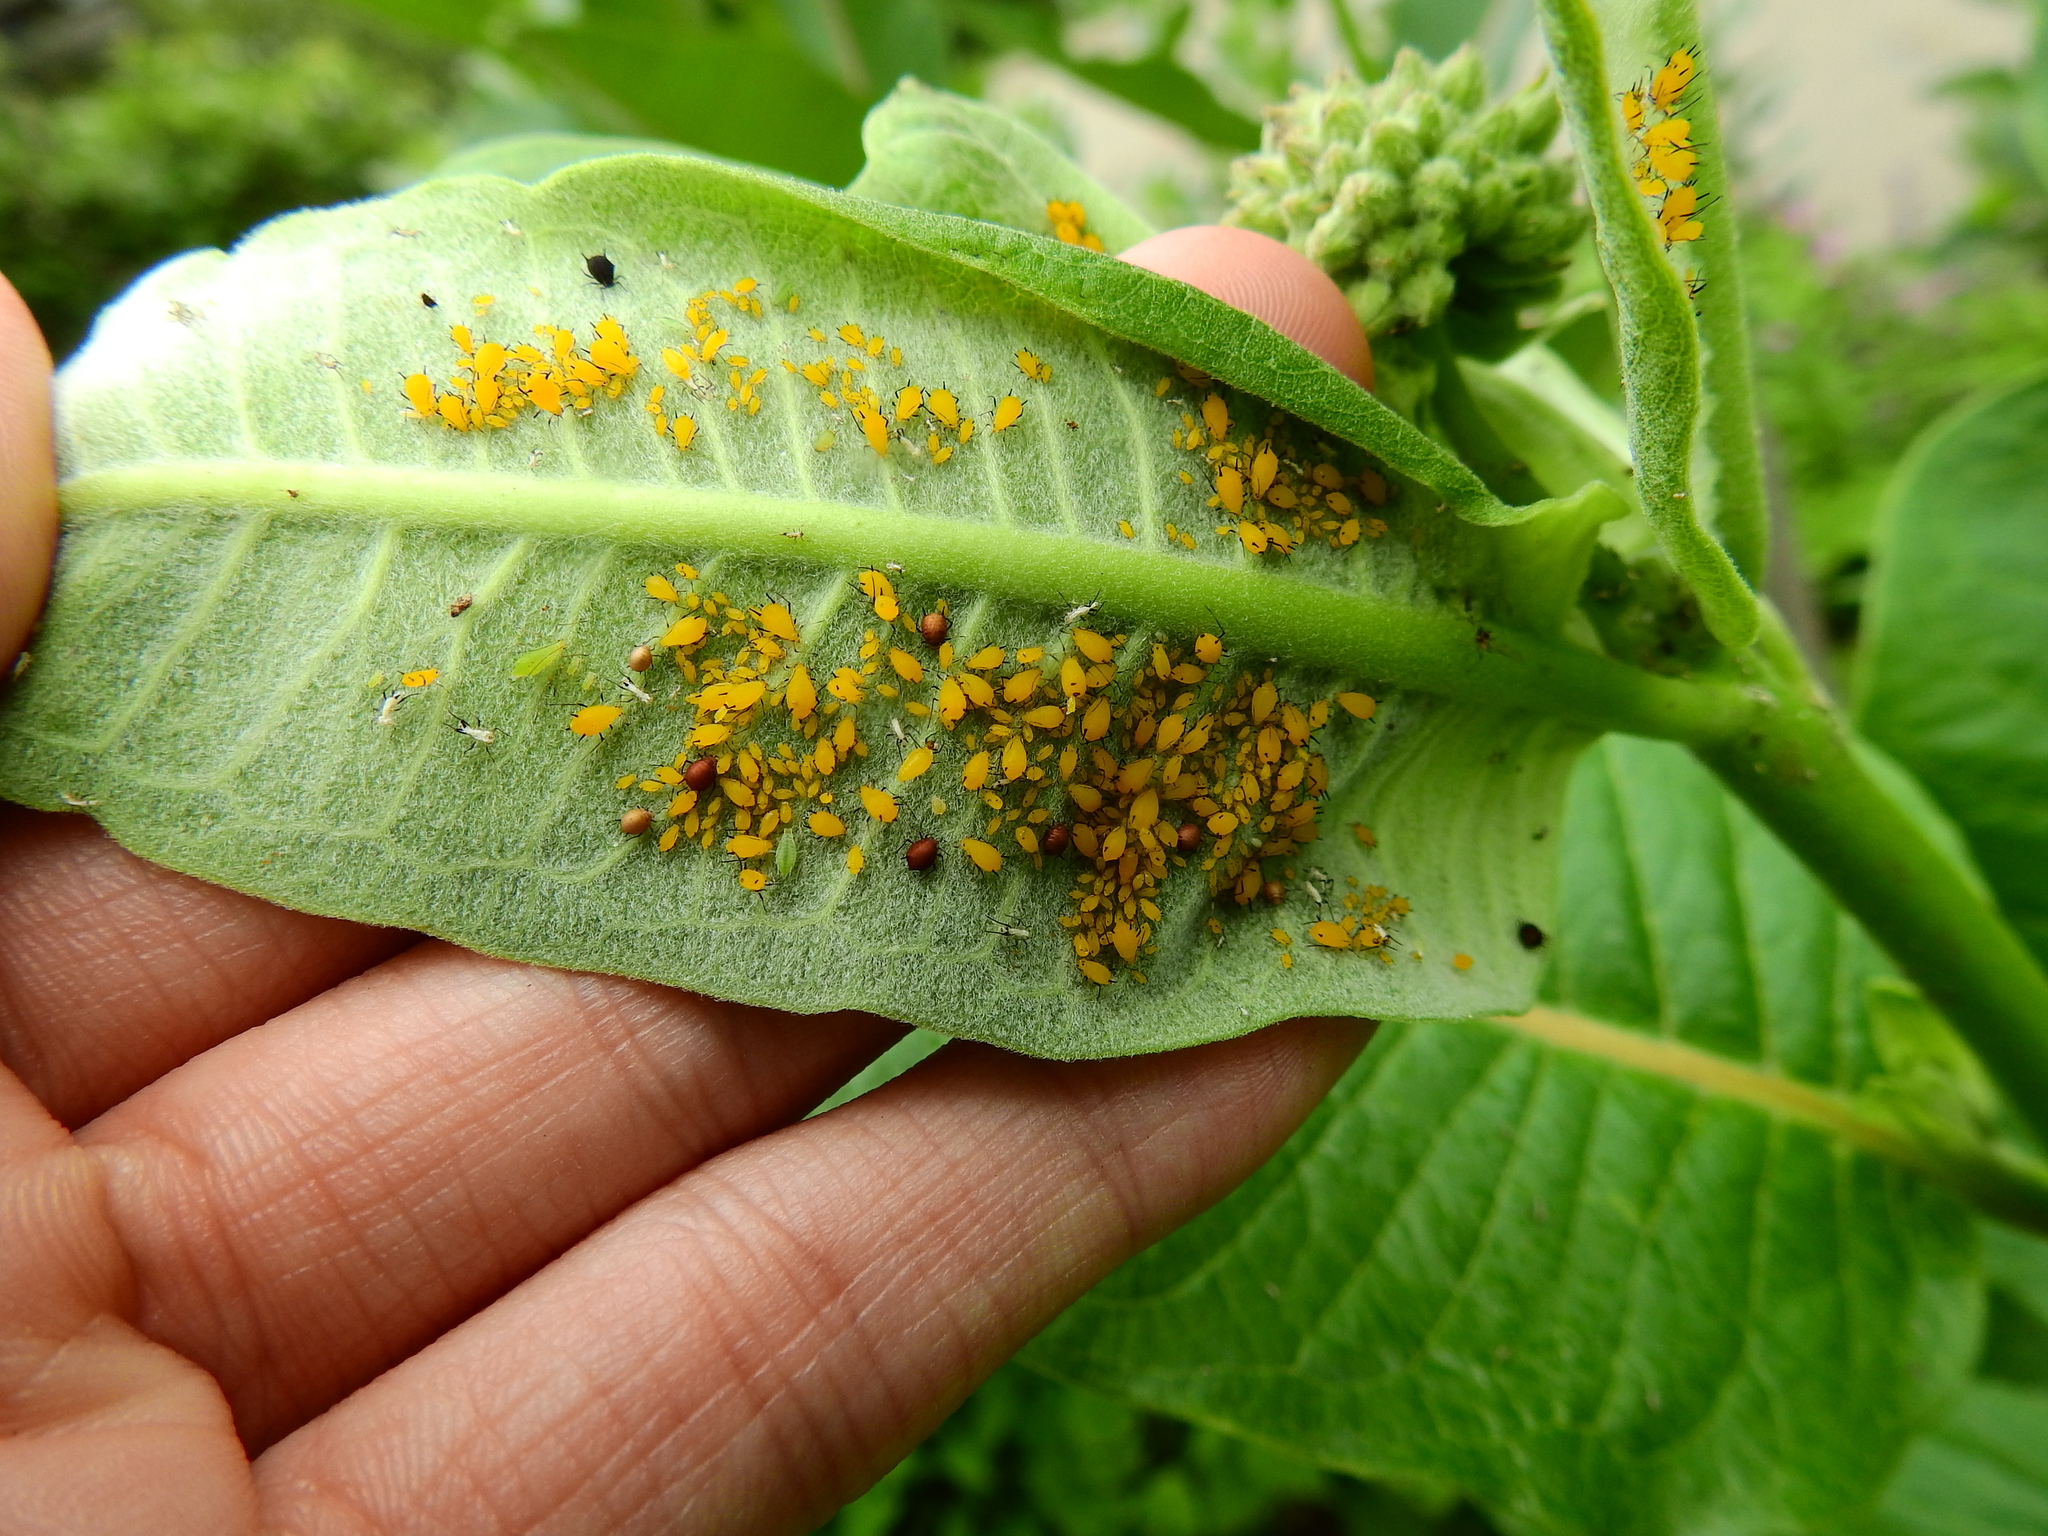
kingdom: Animalia
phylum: Arthropoda
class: Insecta
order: Hemiptera
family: Aphididae
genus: Aphis
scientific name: Aphis nerii
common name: Oleander aphid
